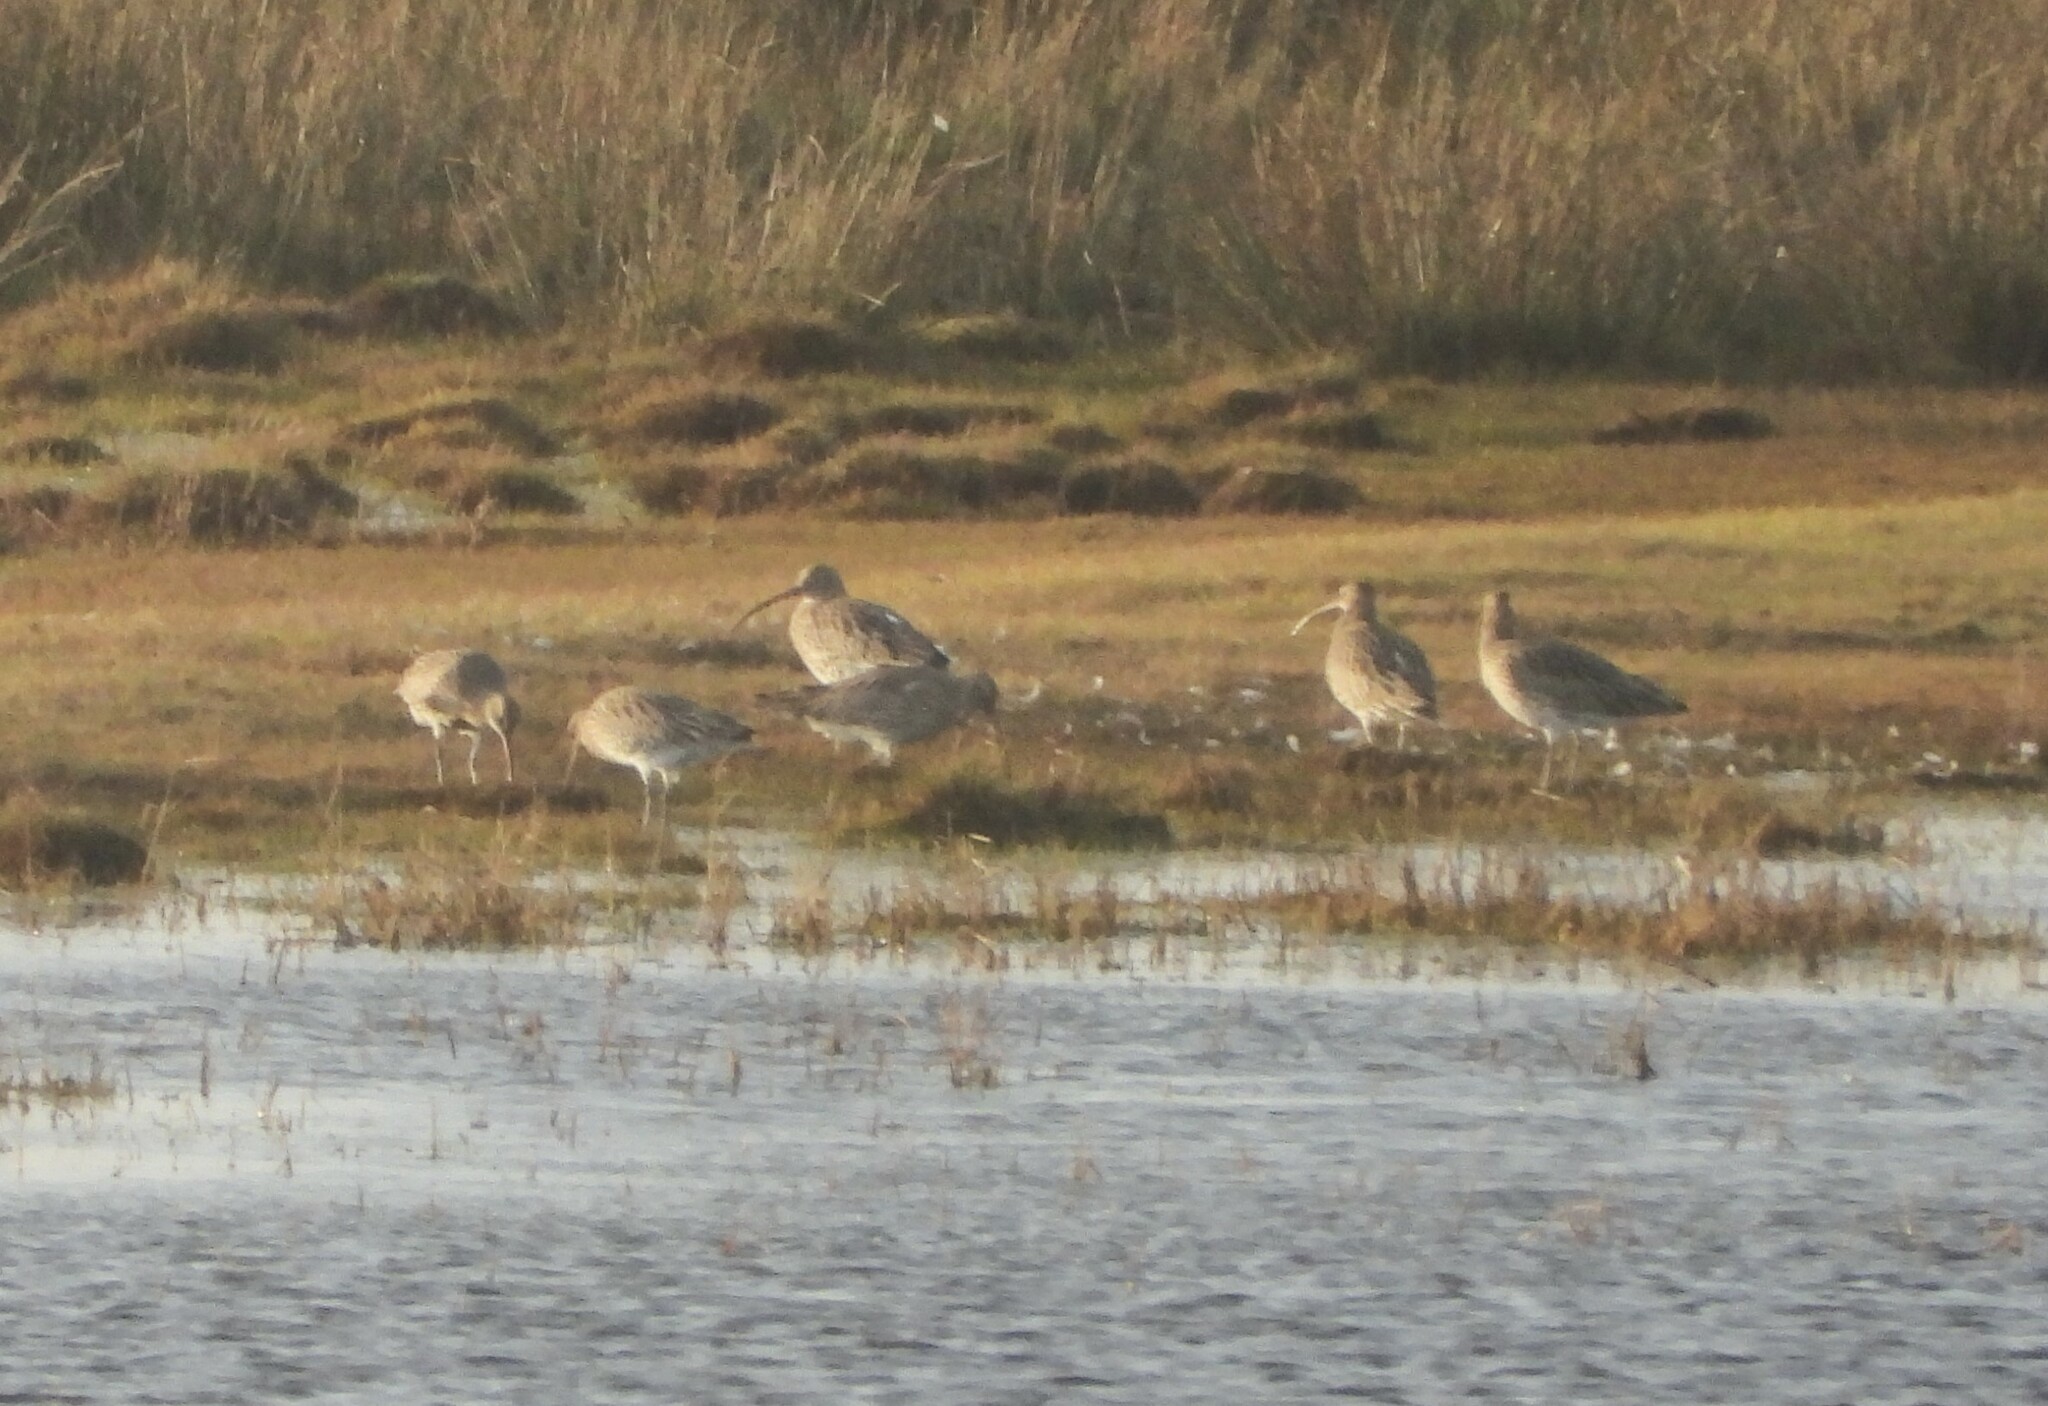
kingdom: Animalia
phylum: Chordata
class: Aves
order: Charadriiformes
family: Scolopacidae
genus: Numenius
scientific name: Numenius arquata
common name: Eurasian curlew
